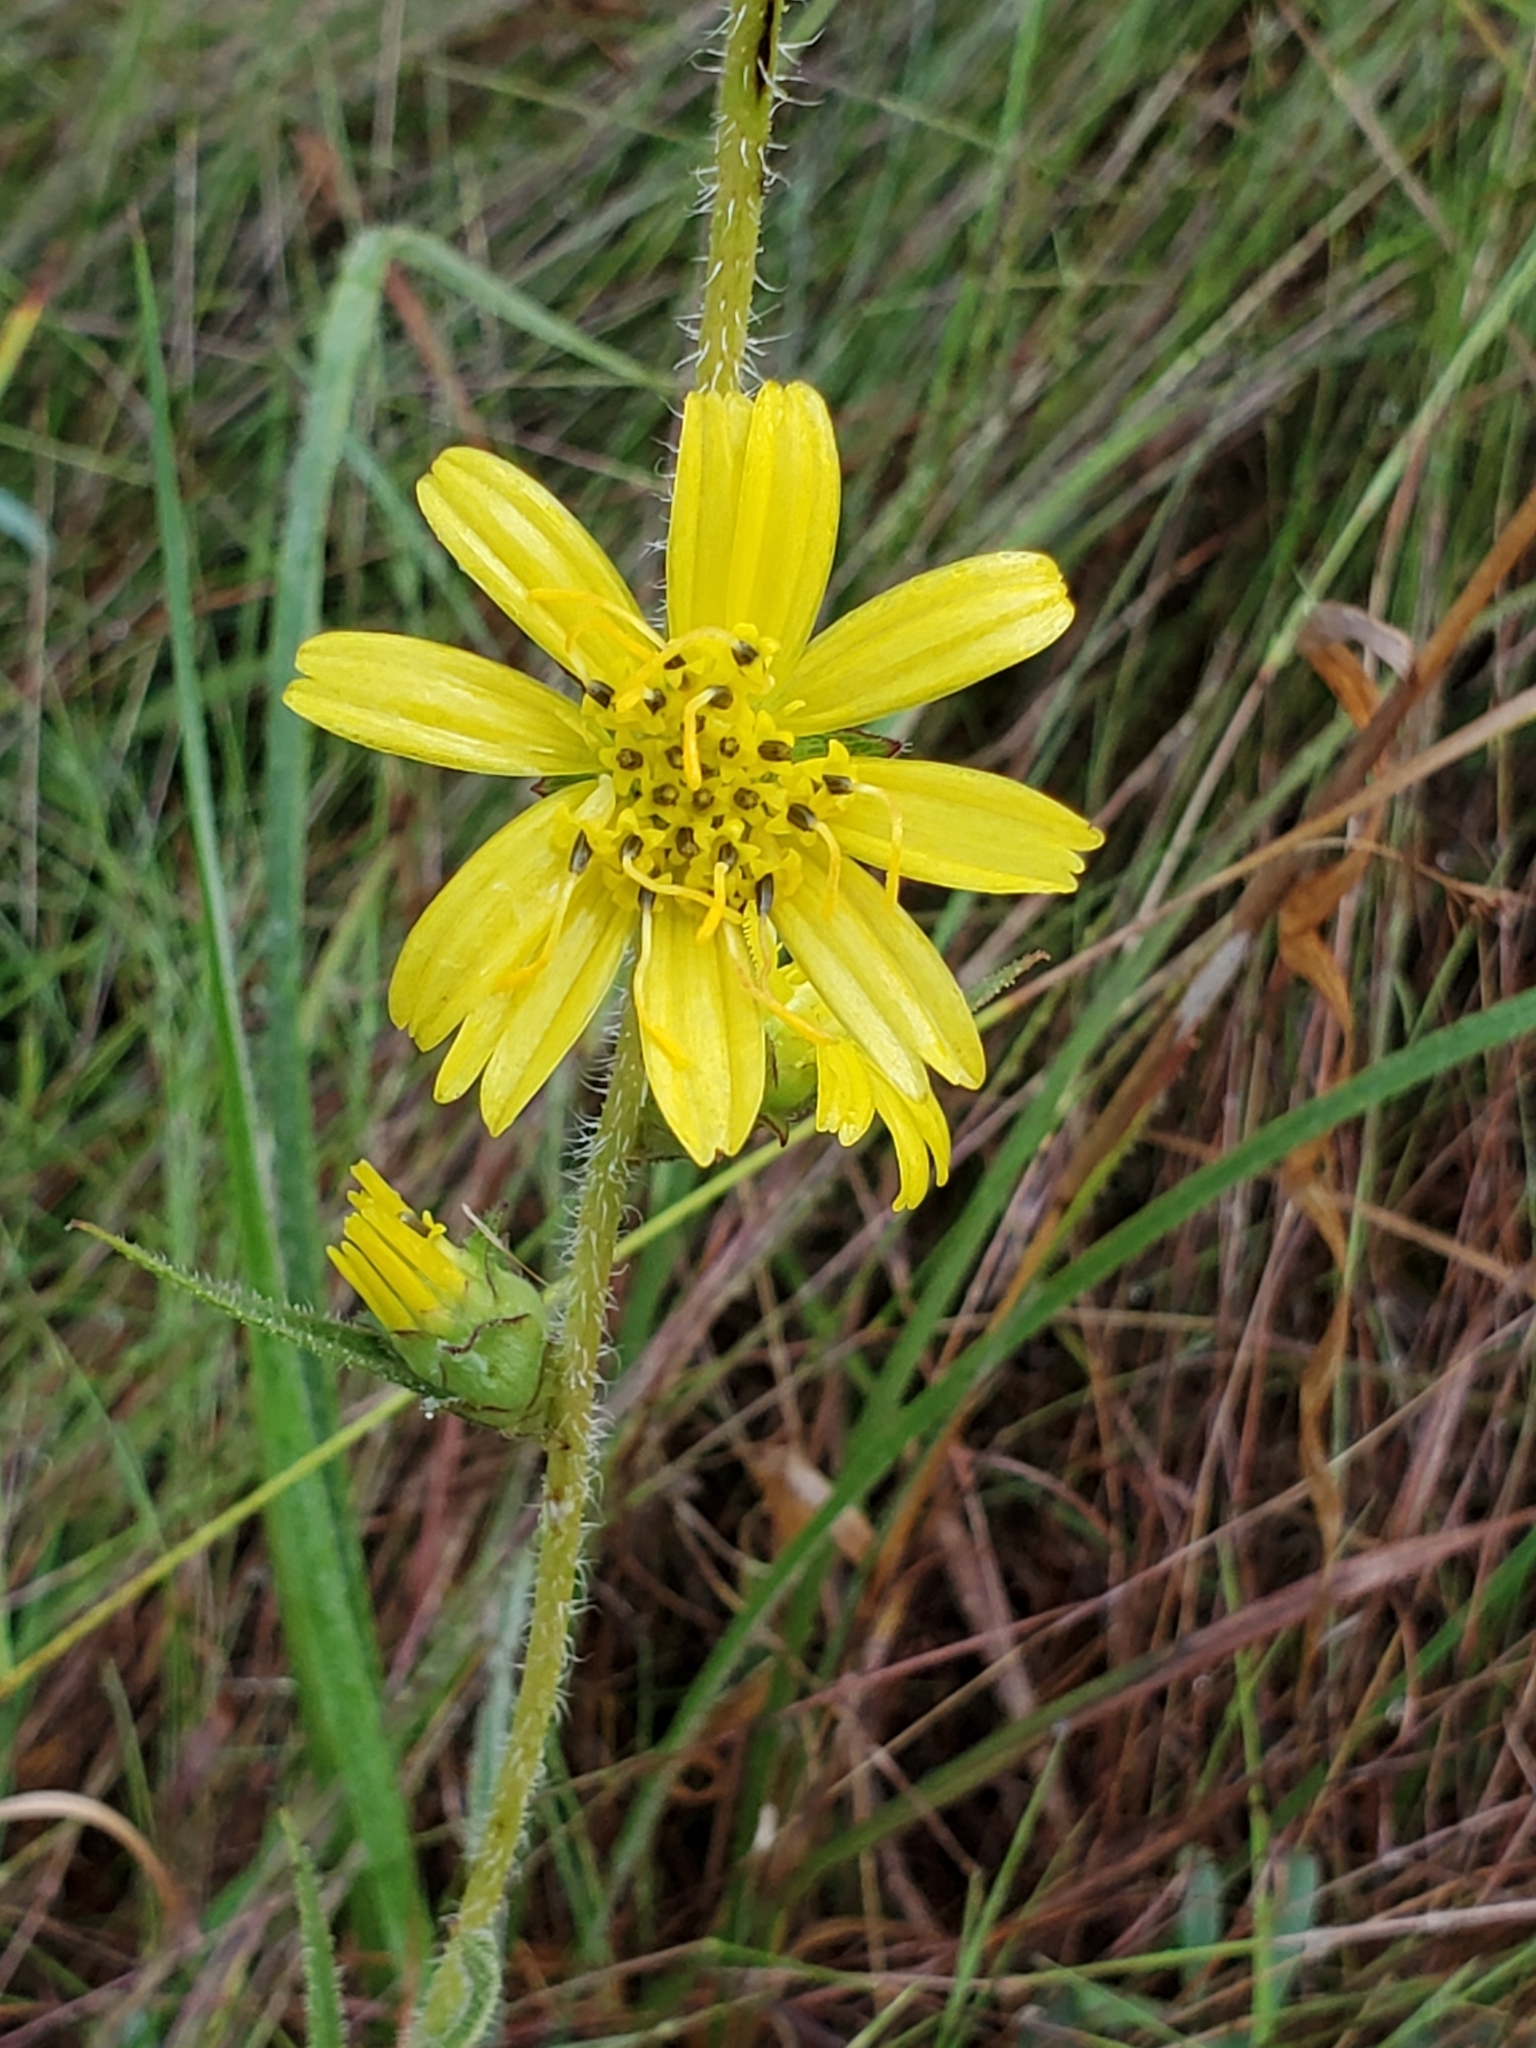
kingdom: Plantae
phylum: Tracheophyta
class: Magnoliopsida
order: Asterales
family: Asteraceae
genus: Silphium
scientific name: Silphium laciniatum
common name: Polarplant
